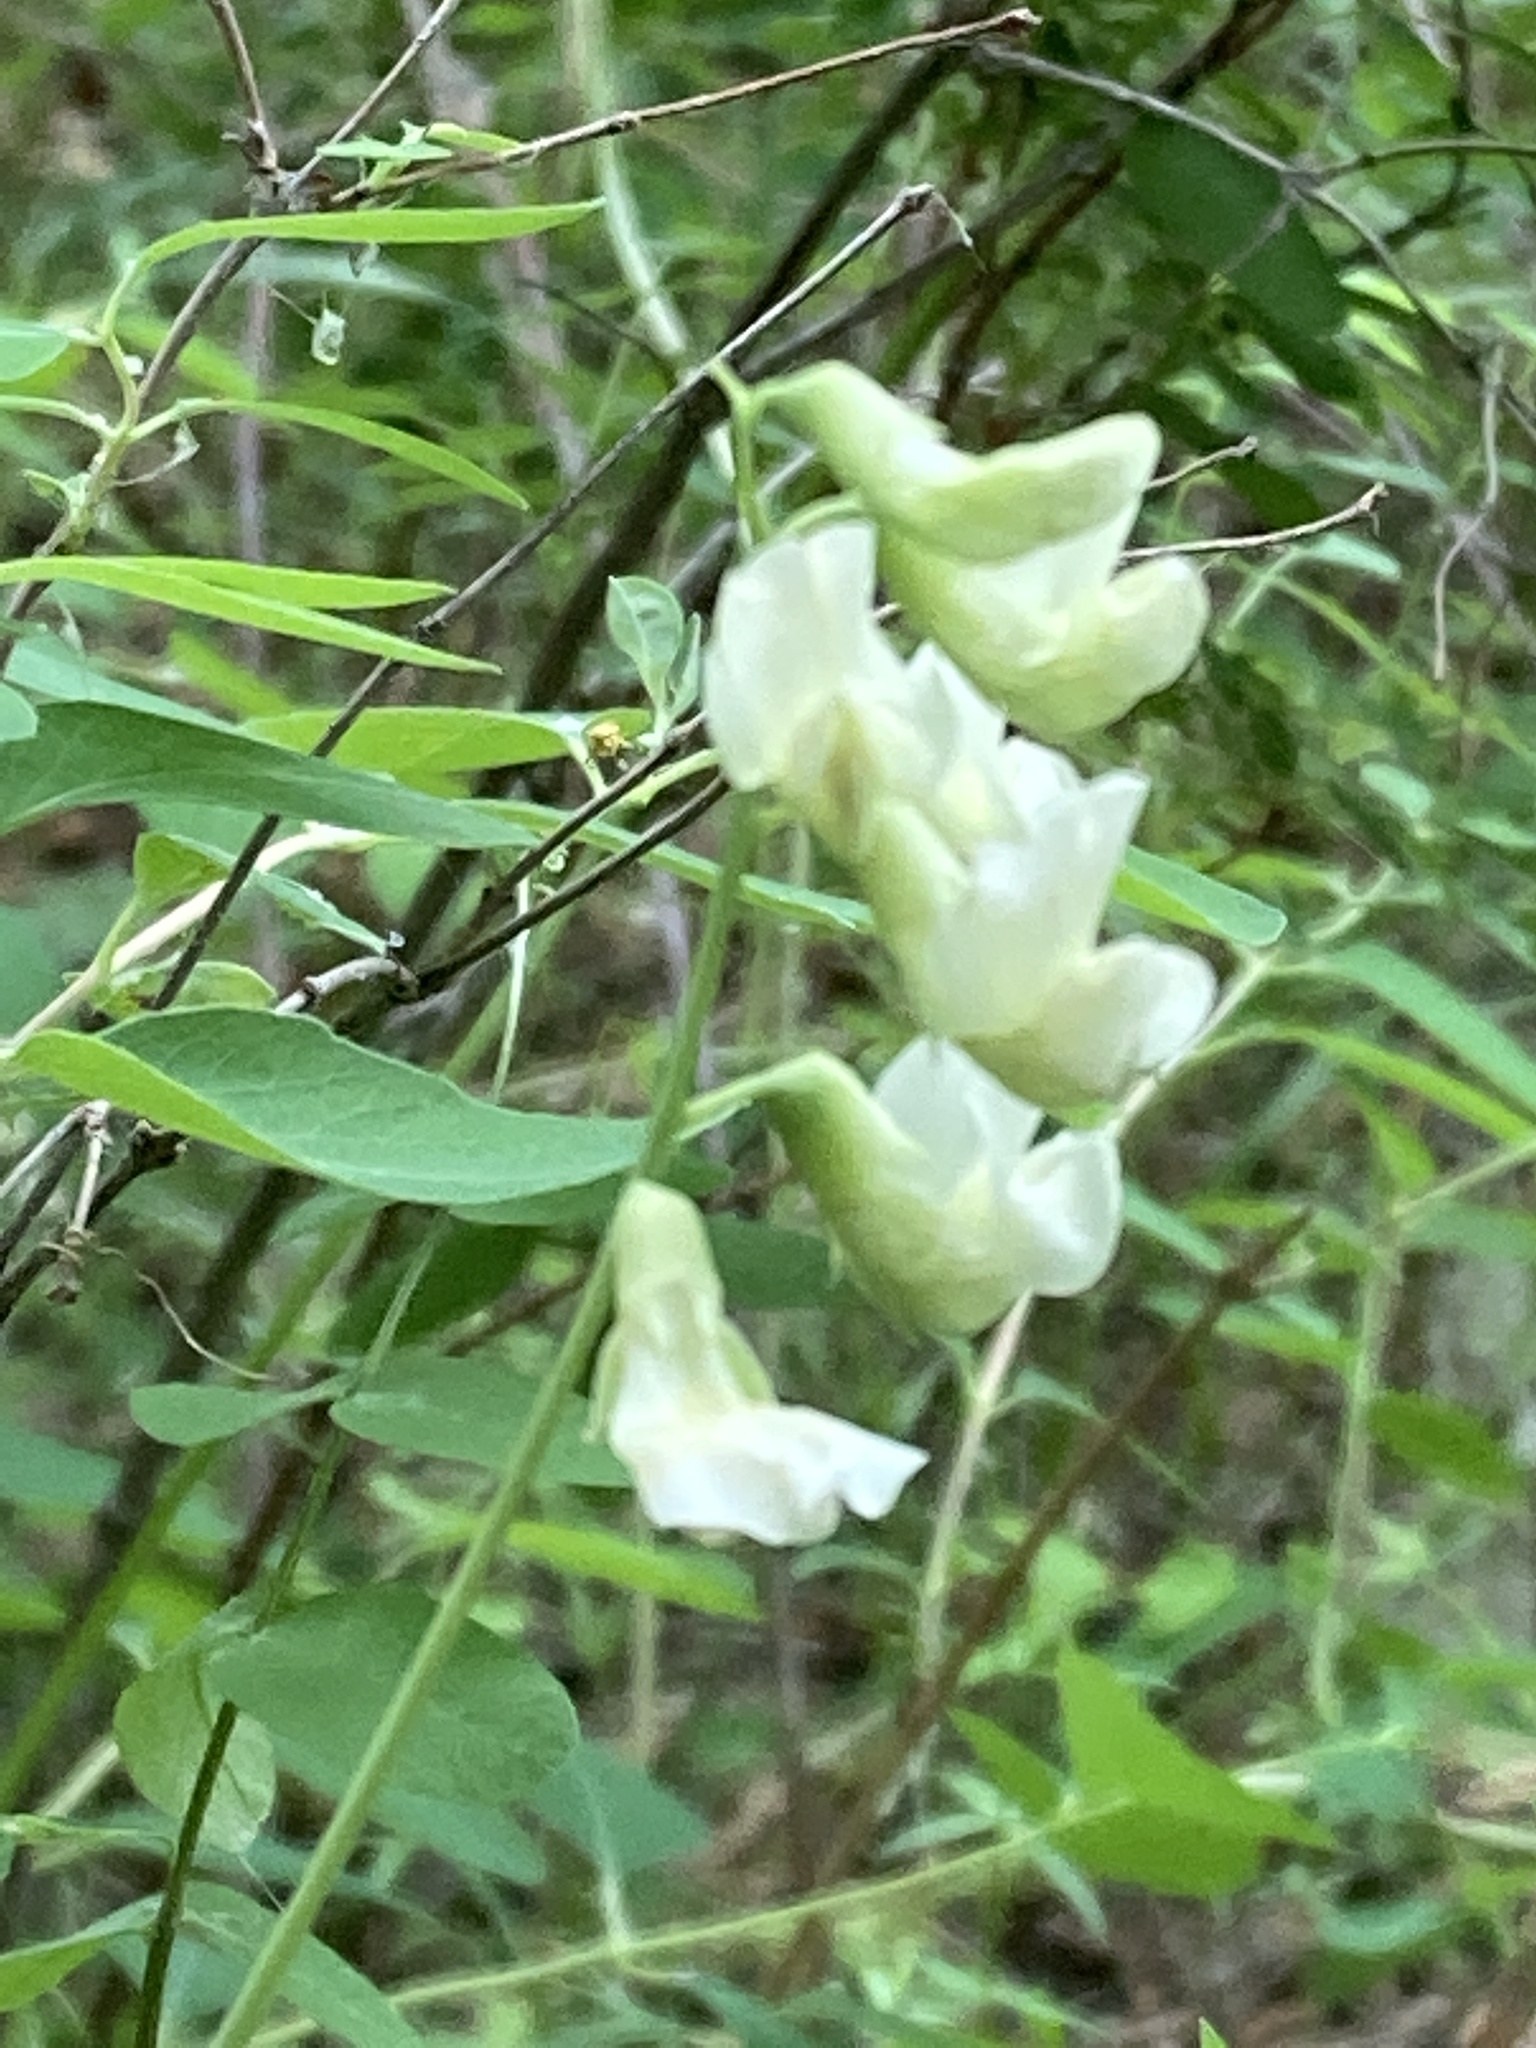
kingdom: Plantae
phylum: Tracheophyta
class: Magnoliopsida
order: Fabales
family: Fabaceae
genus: Lathyrus
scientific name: Lathyrus ochroleucus
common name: Pale vetchling
